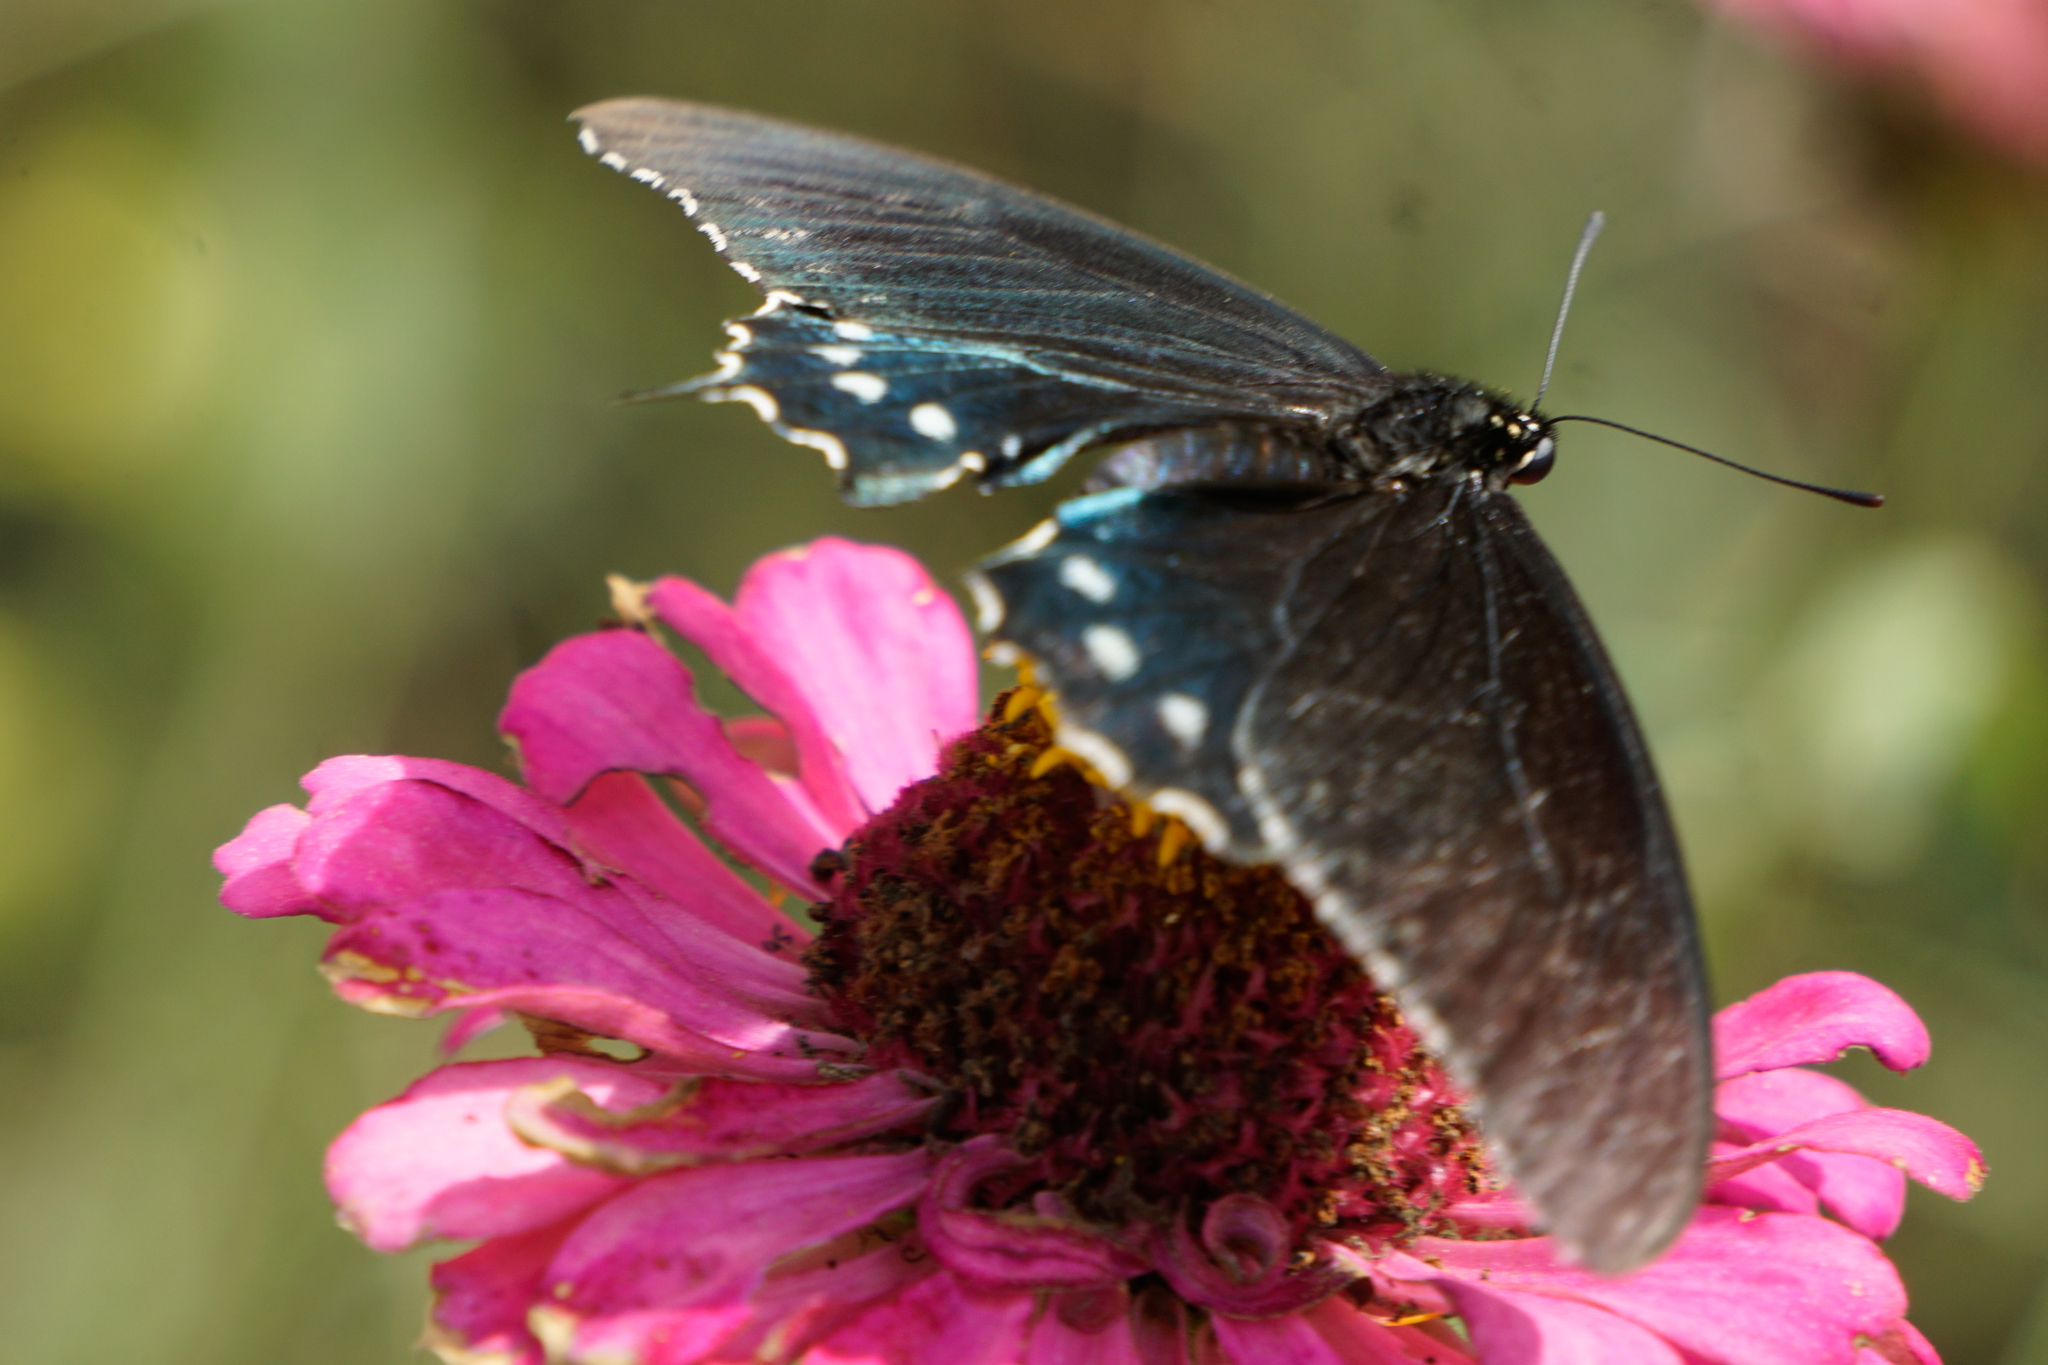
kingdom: Animalia
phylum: Arthropoda
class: Insecta
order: Lepidoptera
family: Papilionidae
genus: Battus
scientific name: Battus philenor
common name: Pipevine swallowtail
